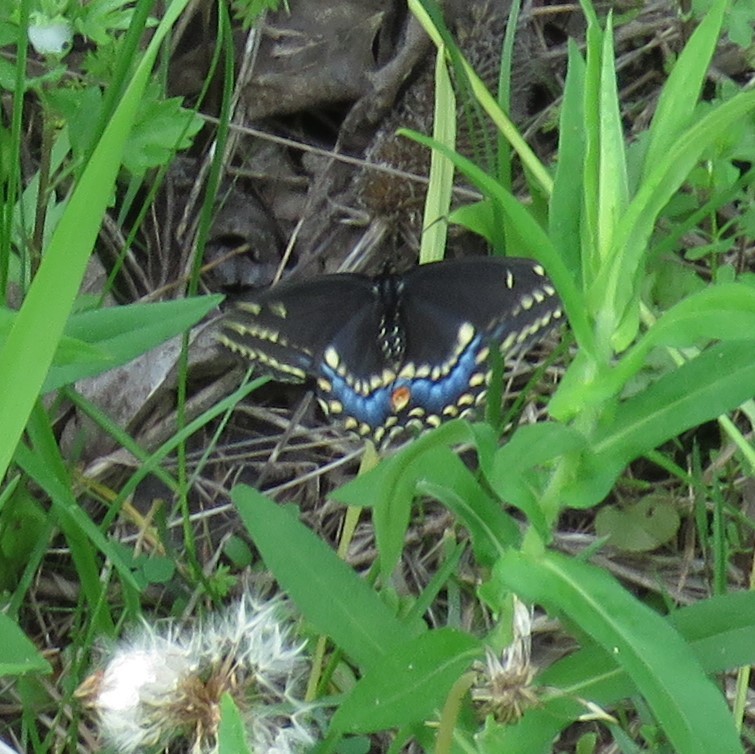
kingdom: Animalia
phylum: Arthropoda
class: Insecta
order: Lepidoptera
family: Papilionidae
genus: Papilio
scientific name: Papilio polyxenes
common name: Black swallowtail
